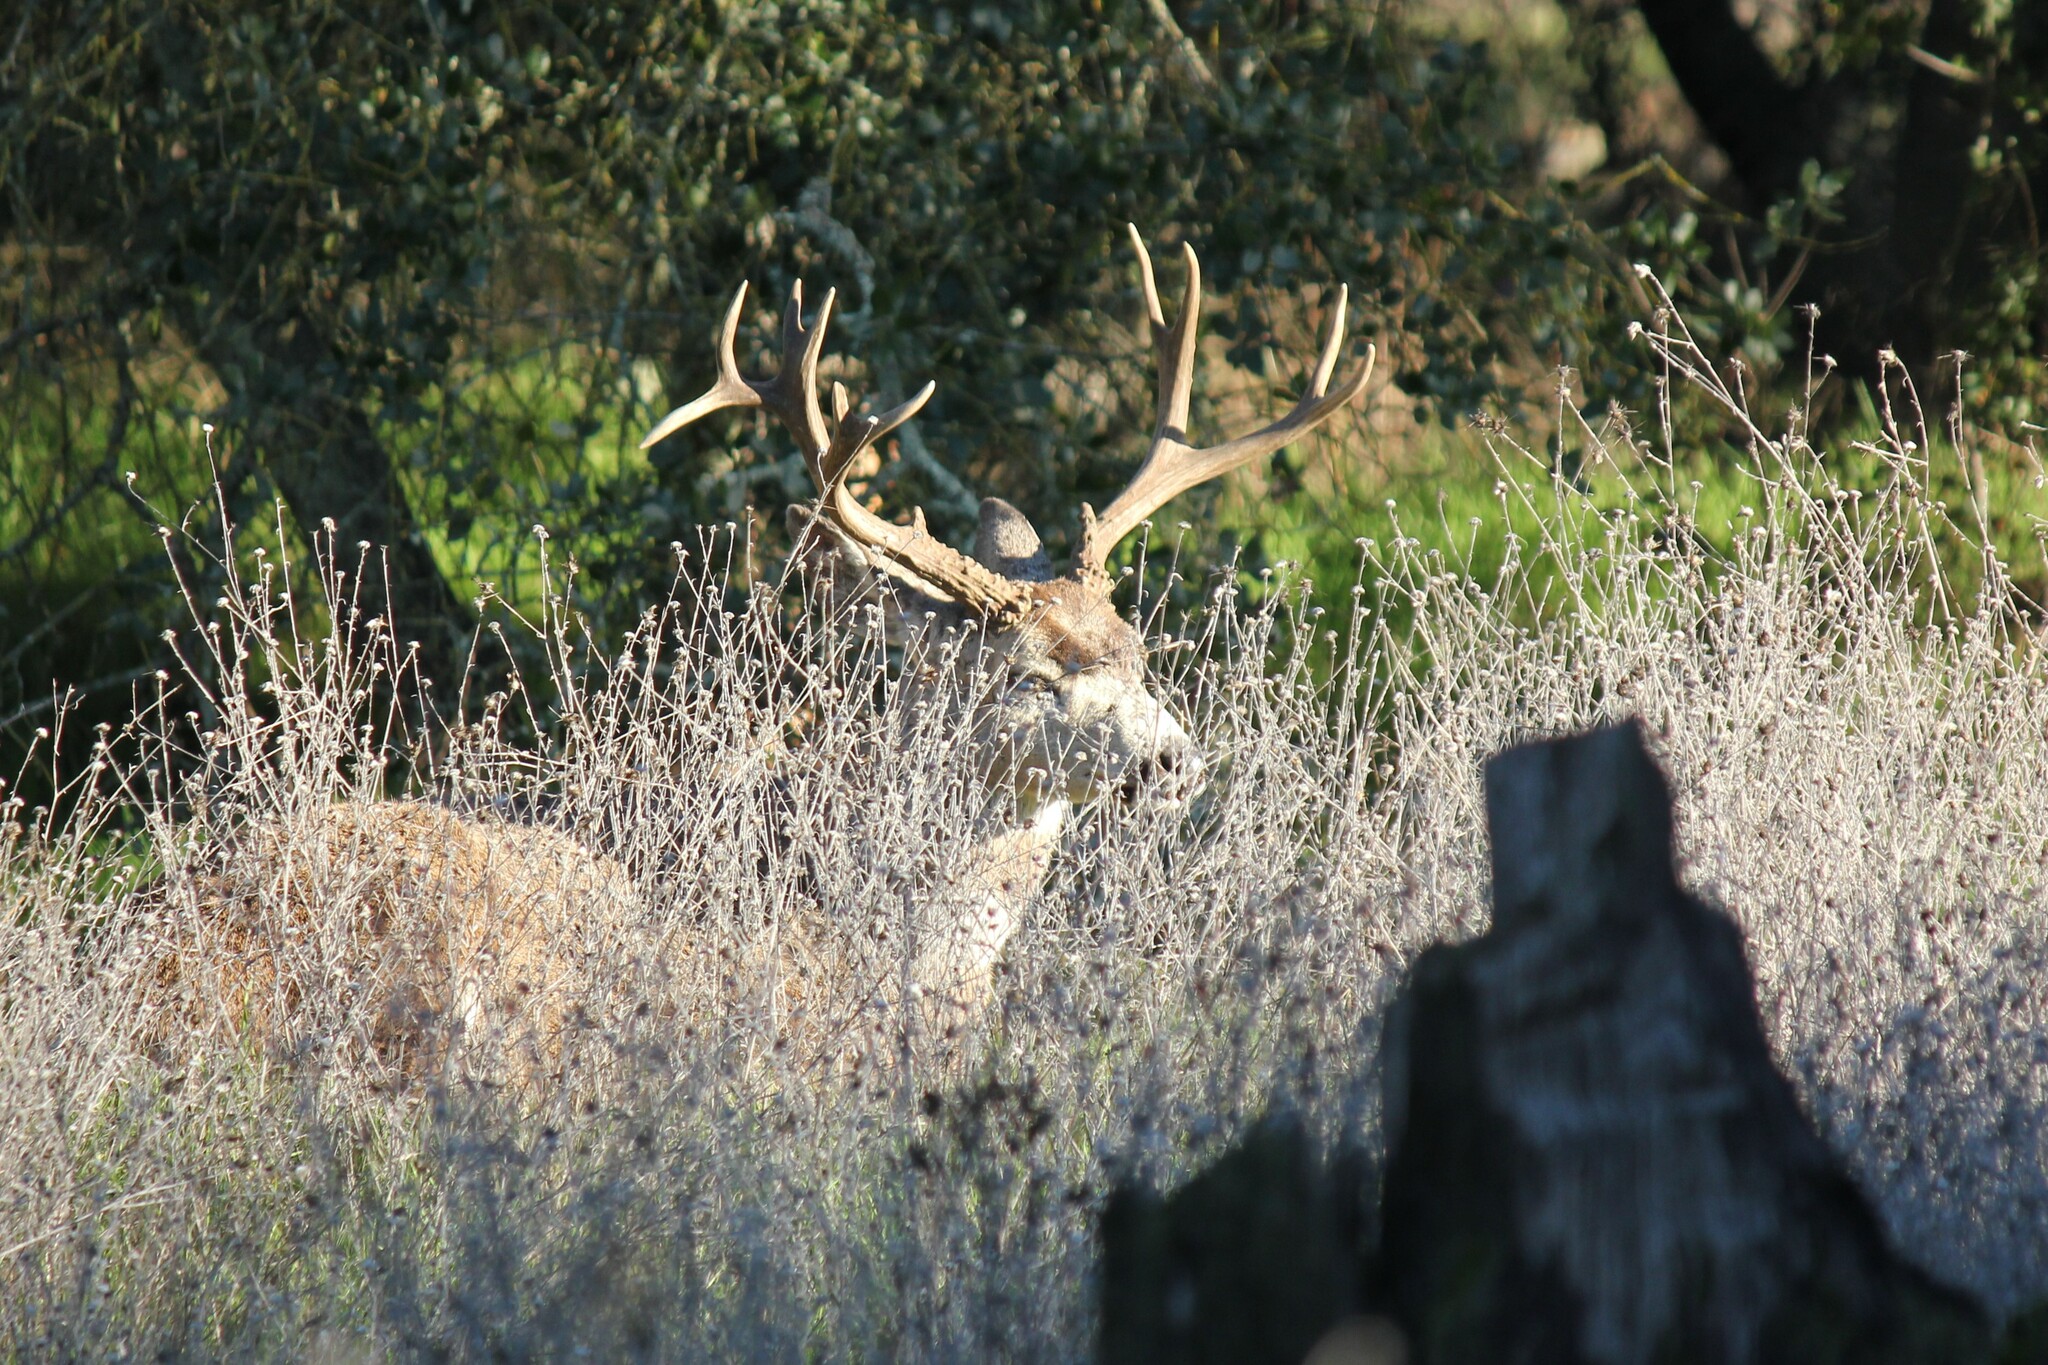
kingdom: Animalia
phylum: Chordata
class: Mammalia
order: Artiodactyla
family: Cervidae
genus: Odocoileus
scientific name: Odocoileus hemionus
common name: Mule deer
